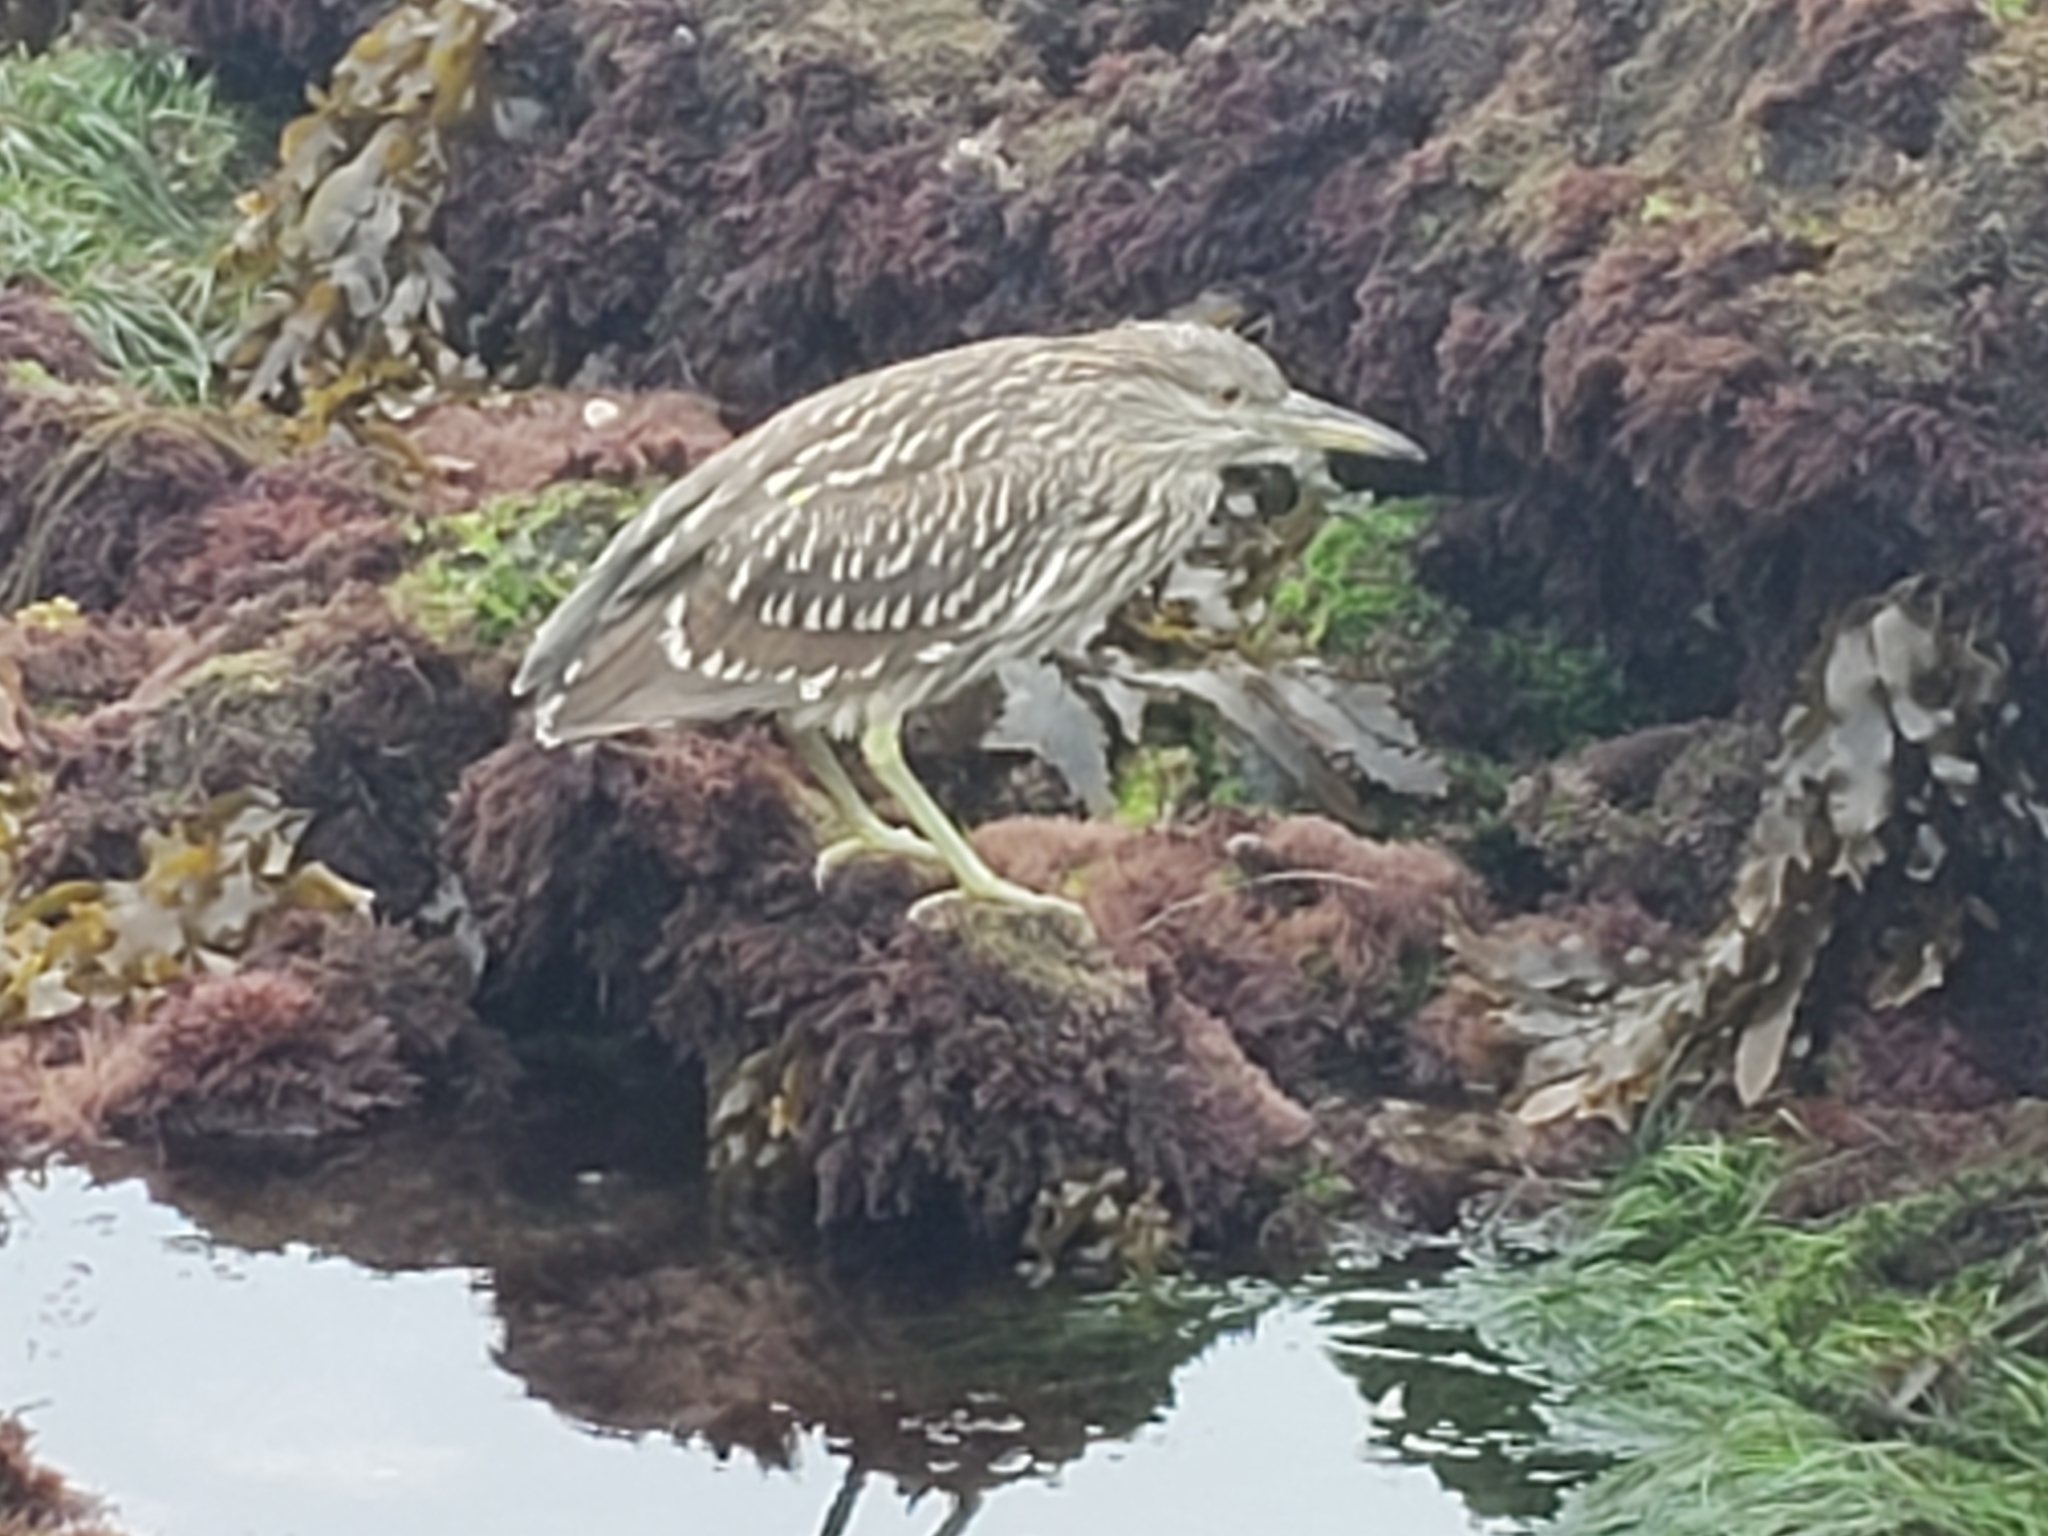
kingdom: Animalia
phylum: Chordata
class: Aves
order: Pelecaniformes
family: Ardeidae
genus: Nycticorax
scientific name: Nycticorax nycticorax
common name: Black-crowned night heron
